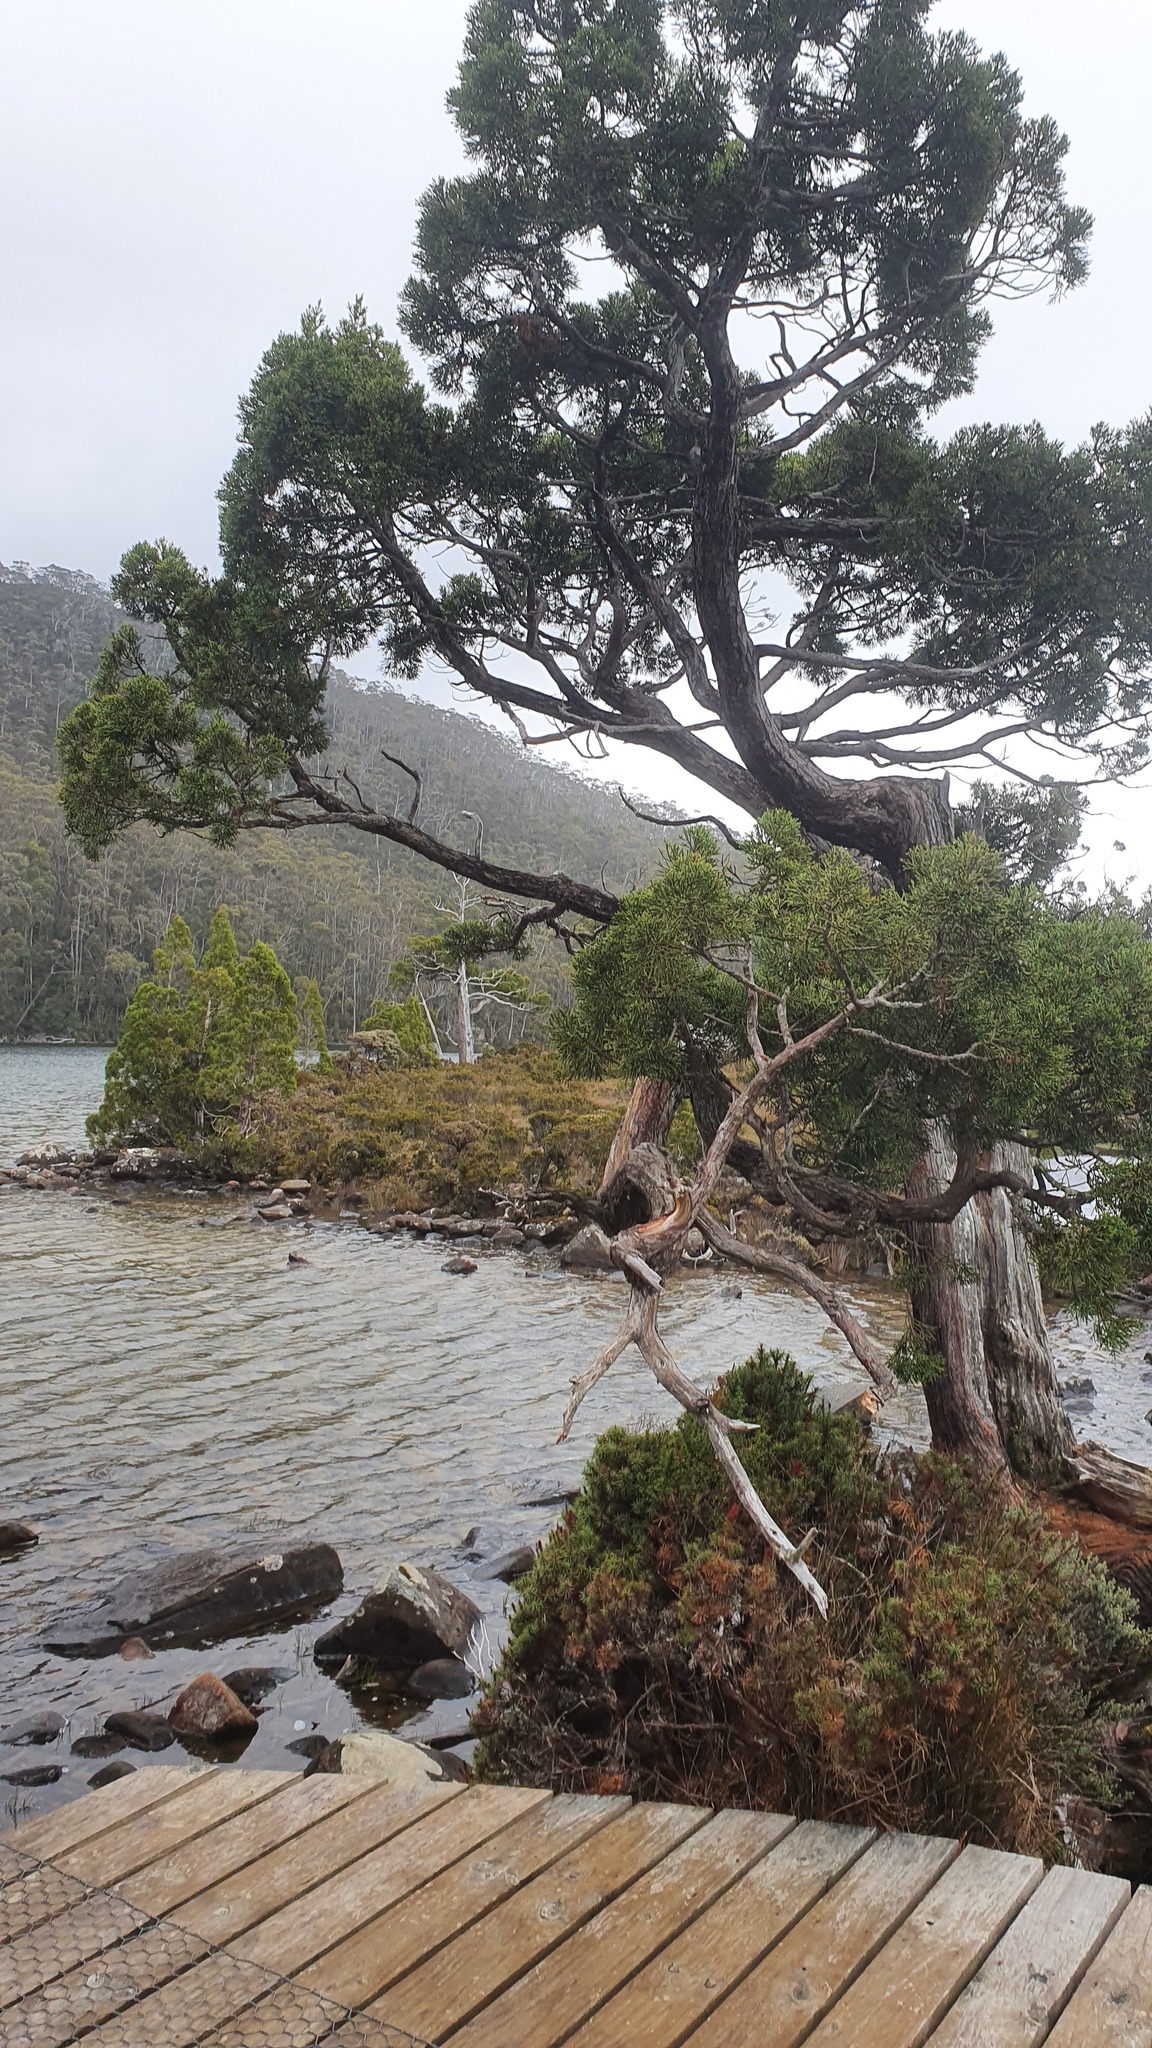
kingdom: Plantae
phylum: Tracheophyta
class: Pinopsida
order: Pinales
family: Cupressaceae
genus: Athrotaxis
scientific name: Athrotaxis cupressoides
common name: Tasmanian pencil pine
